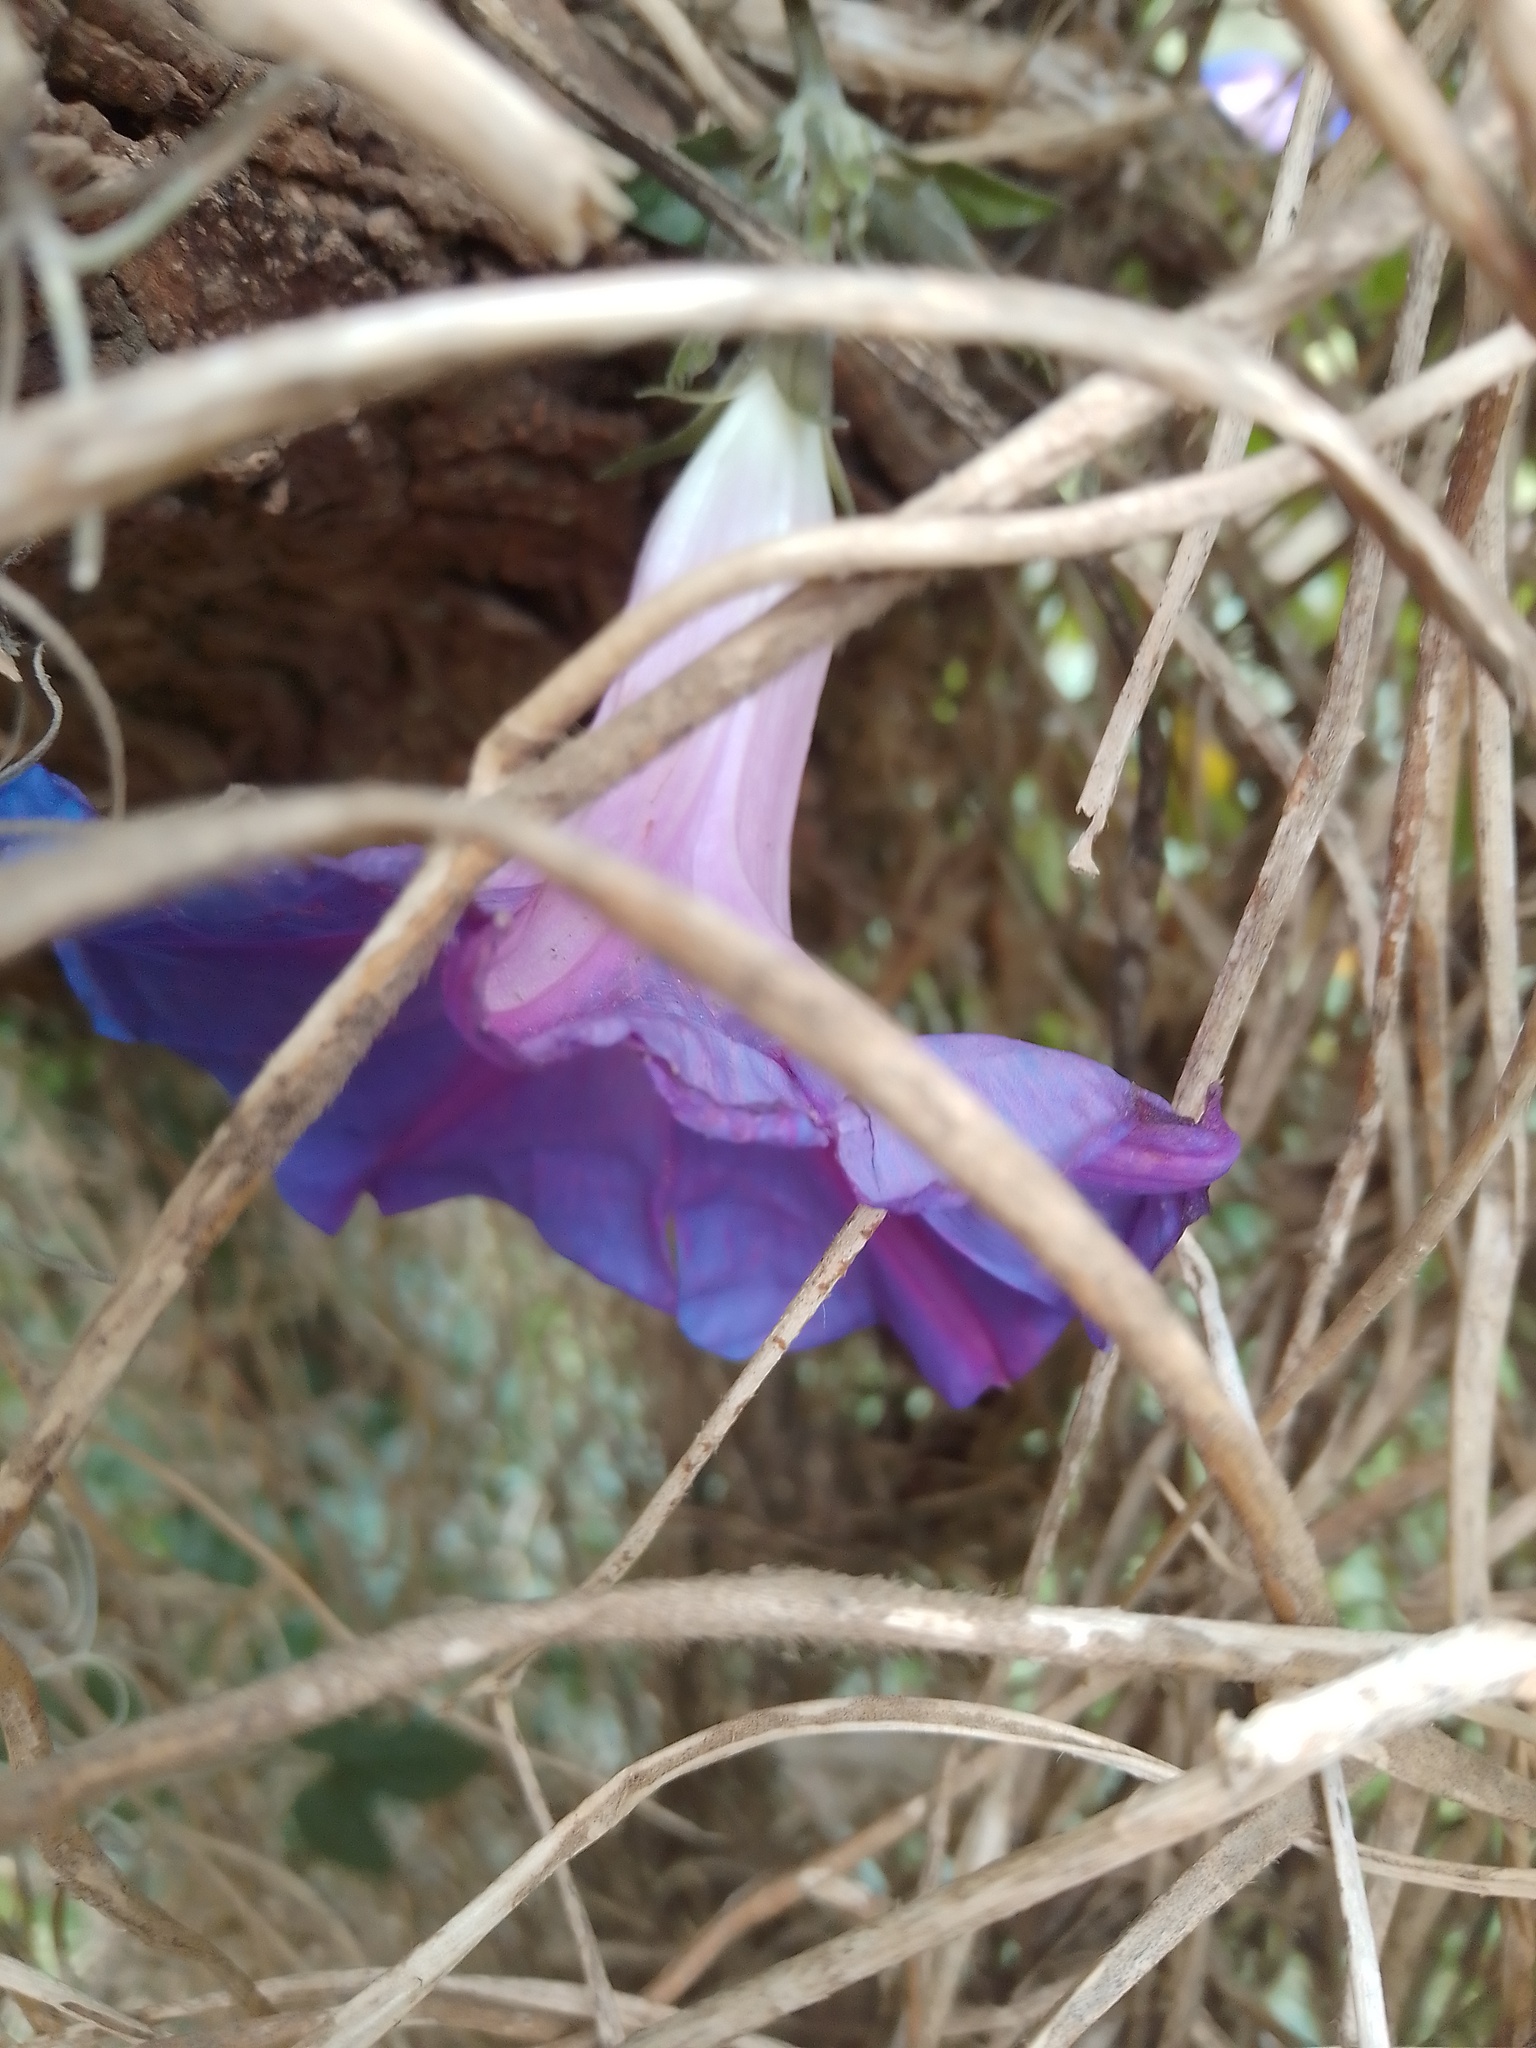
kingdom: Plantae
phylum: Tracheophyta
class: Magnoliopsida
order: Solanales
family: Convolvulaceae
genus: Ipomoea
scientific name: Ipomoea indica
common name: Blue dawnflower
